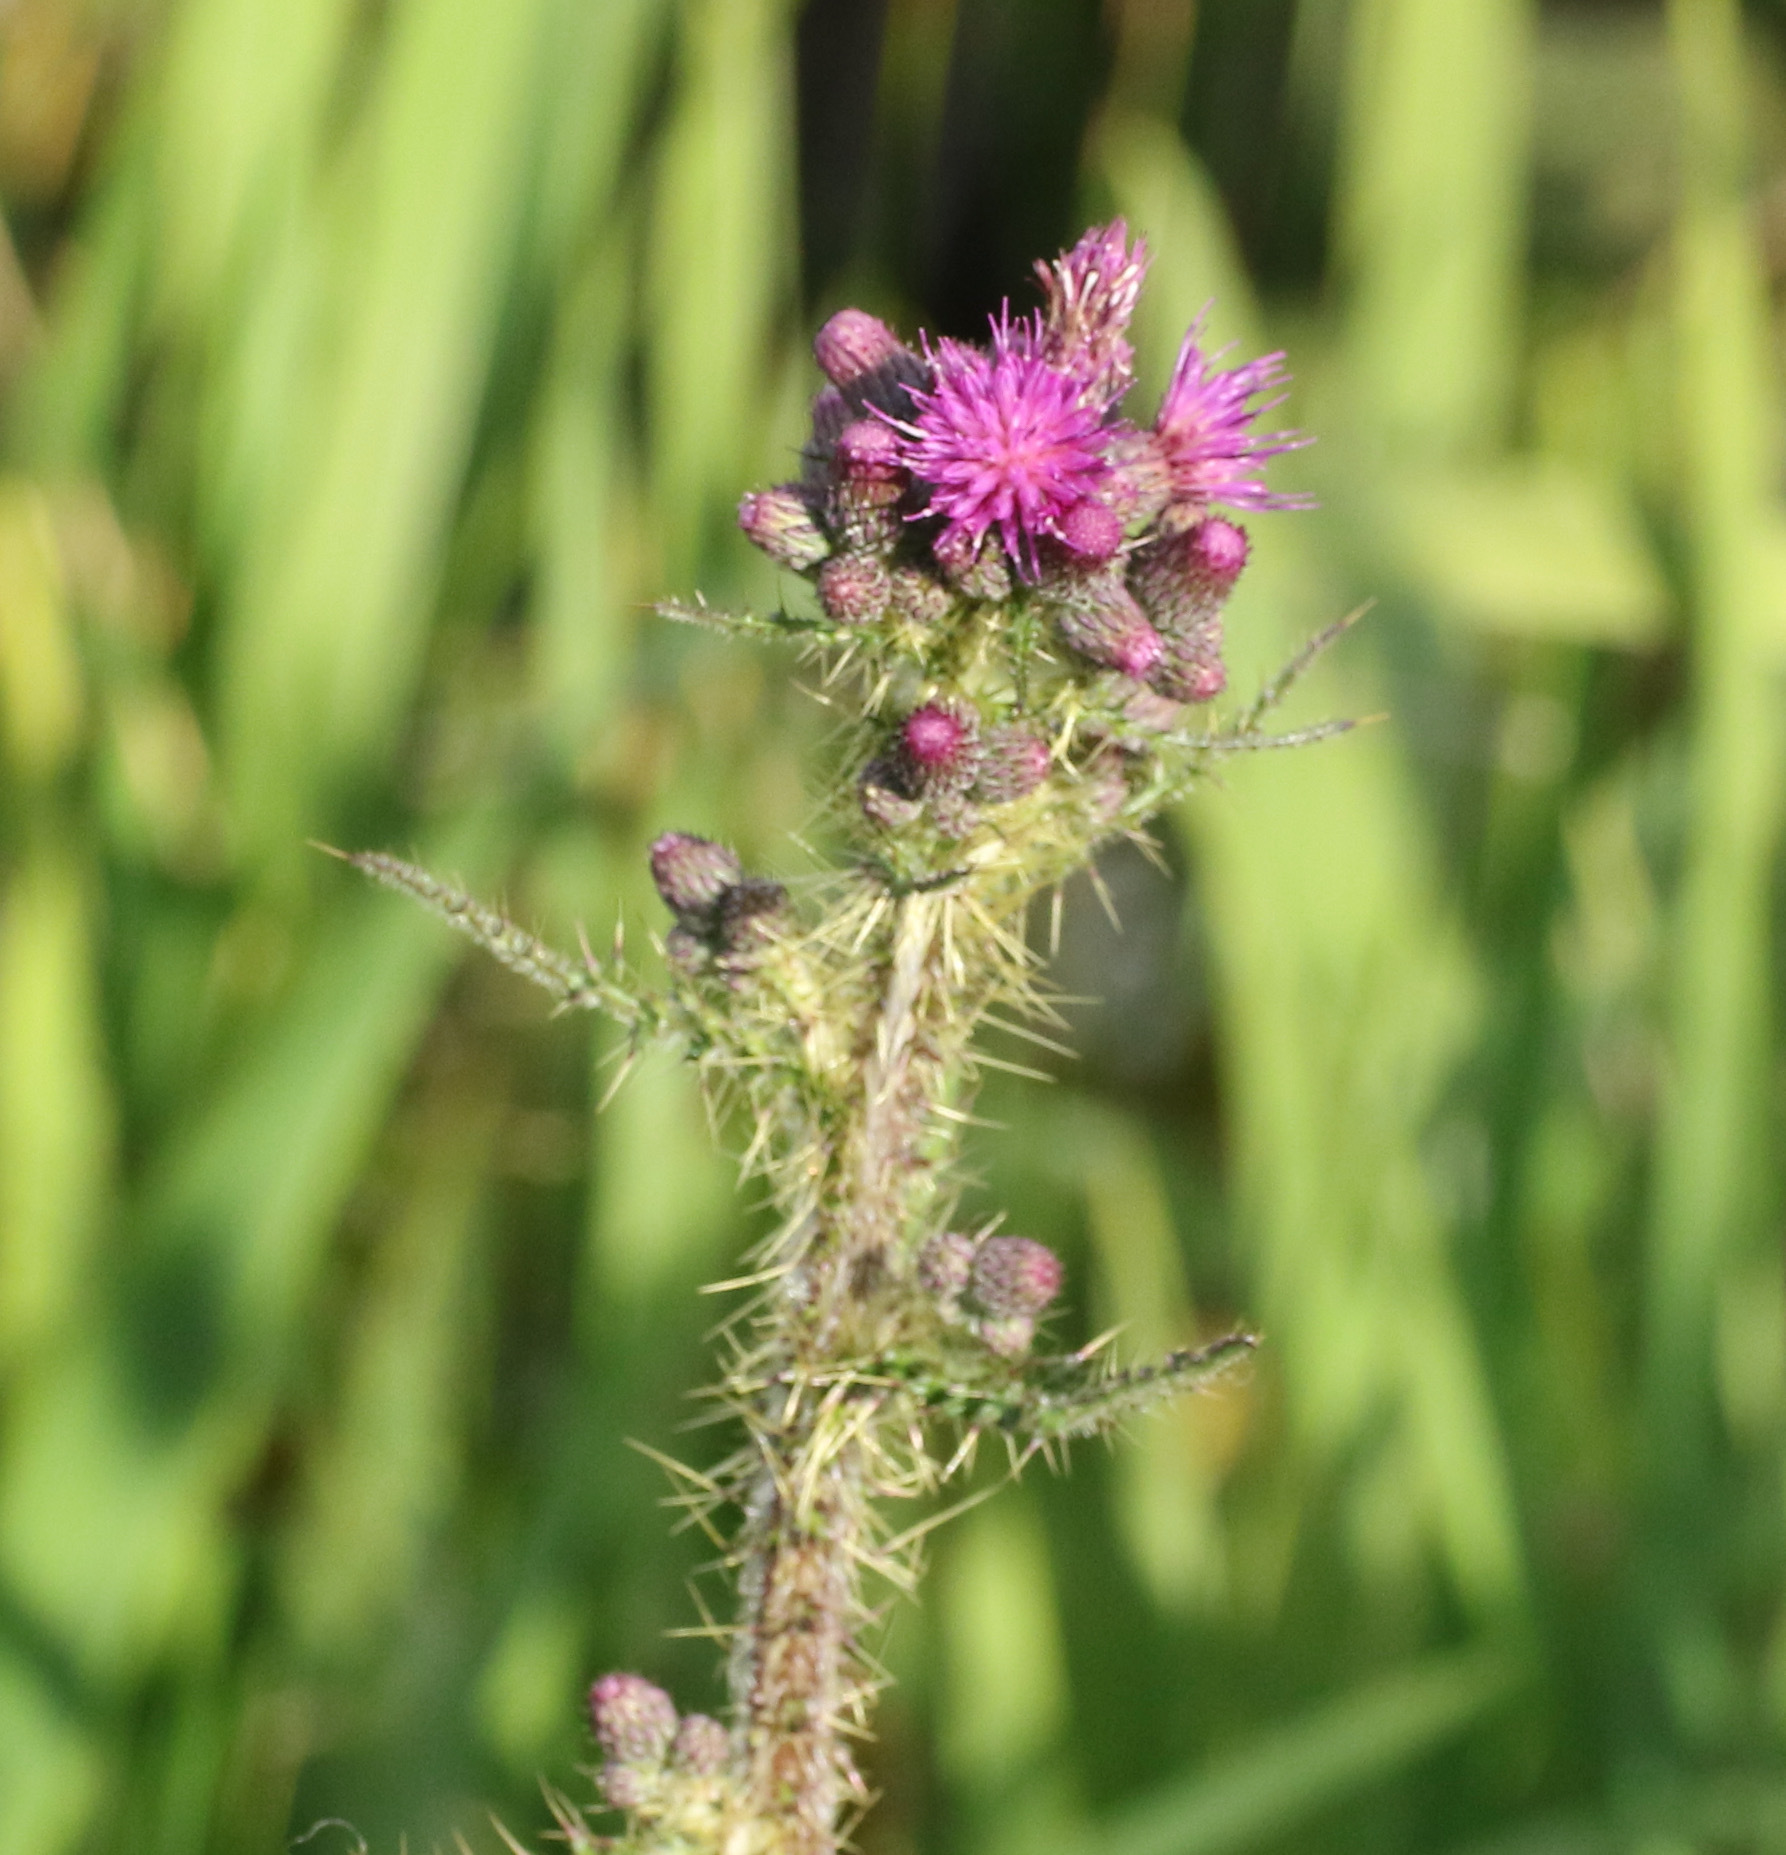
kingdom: Plantae
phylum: Tracheophyta
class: Magnoliopsida
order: Asterales
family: Asteraceae
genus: Cirsium
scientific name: Cirsium palustre
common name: Marsh thistle
